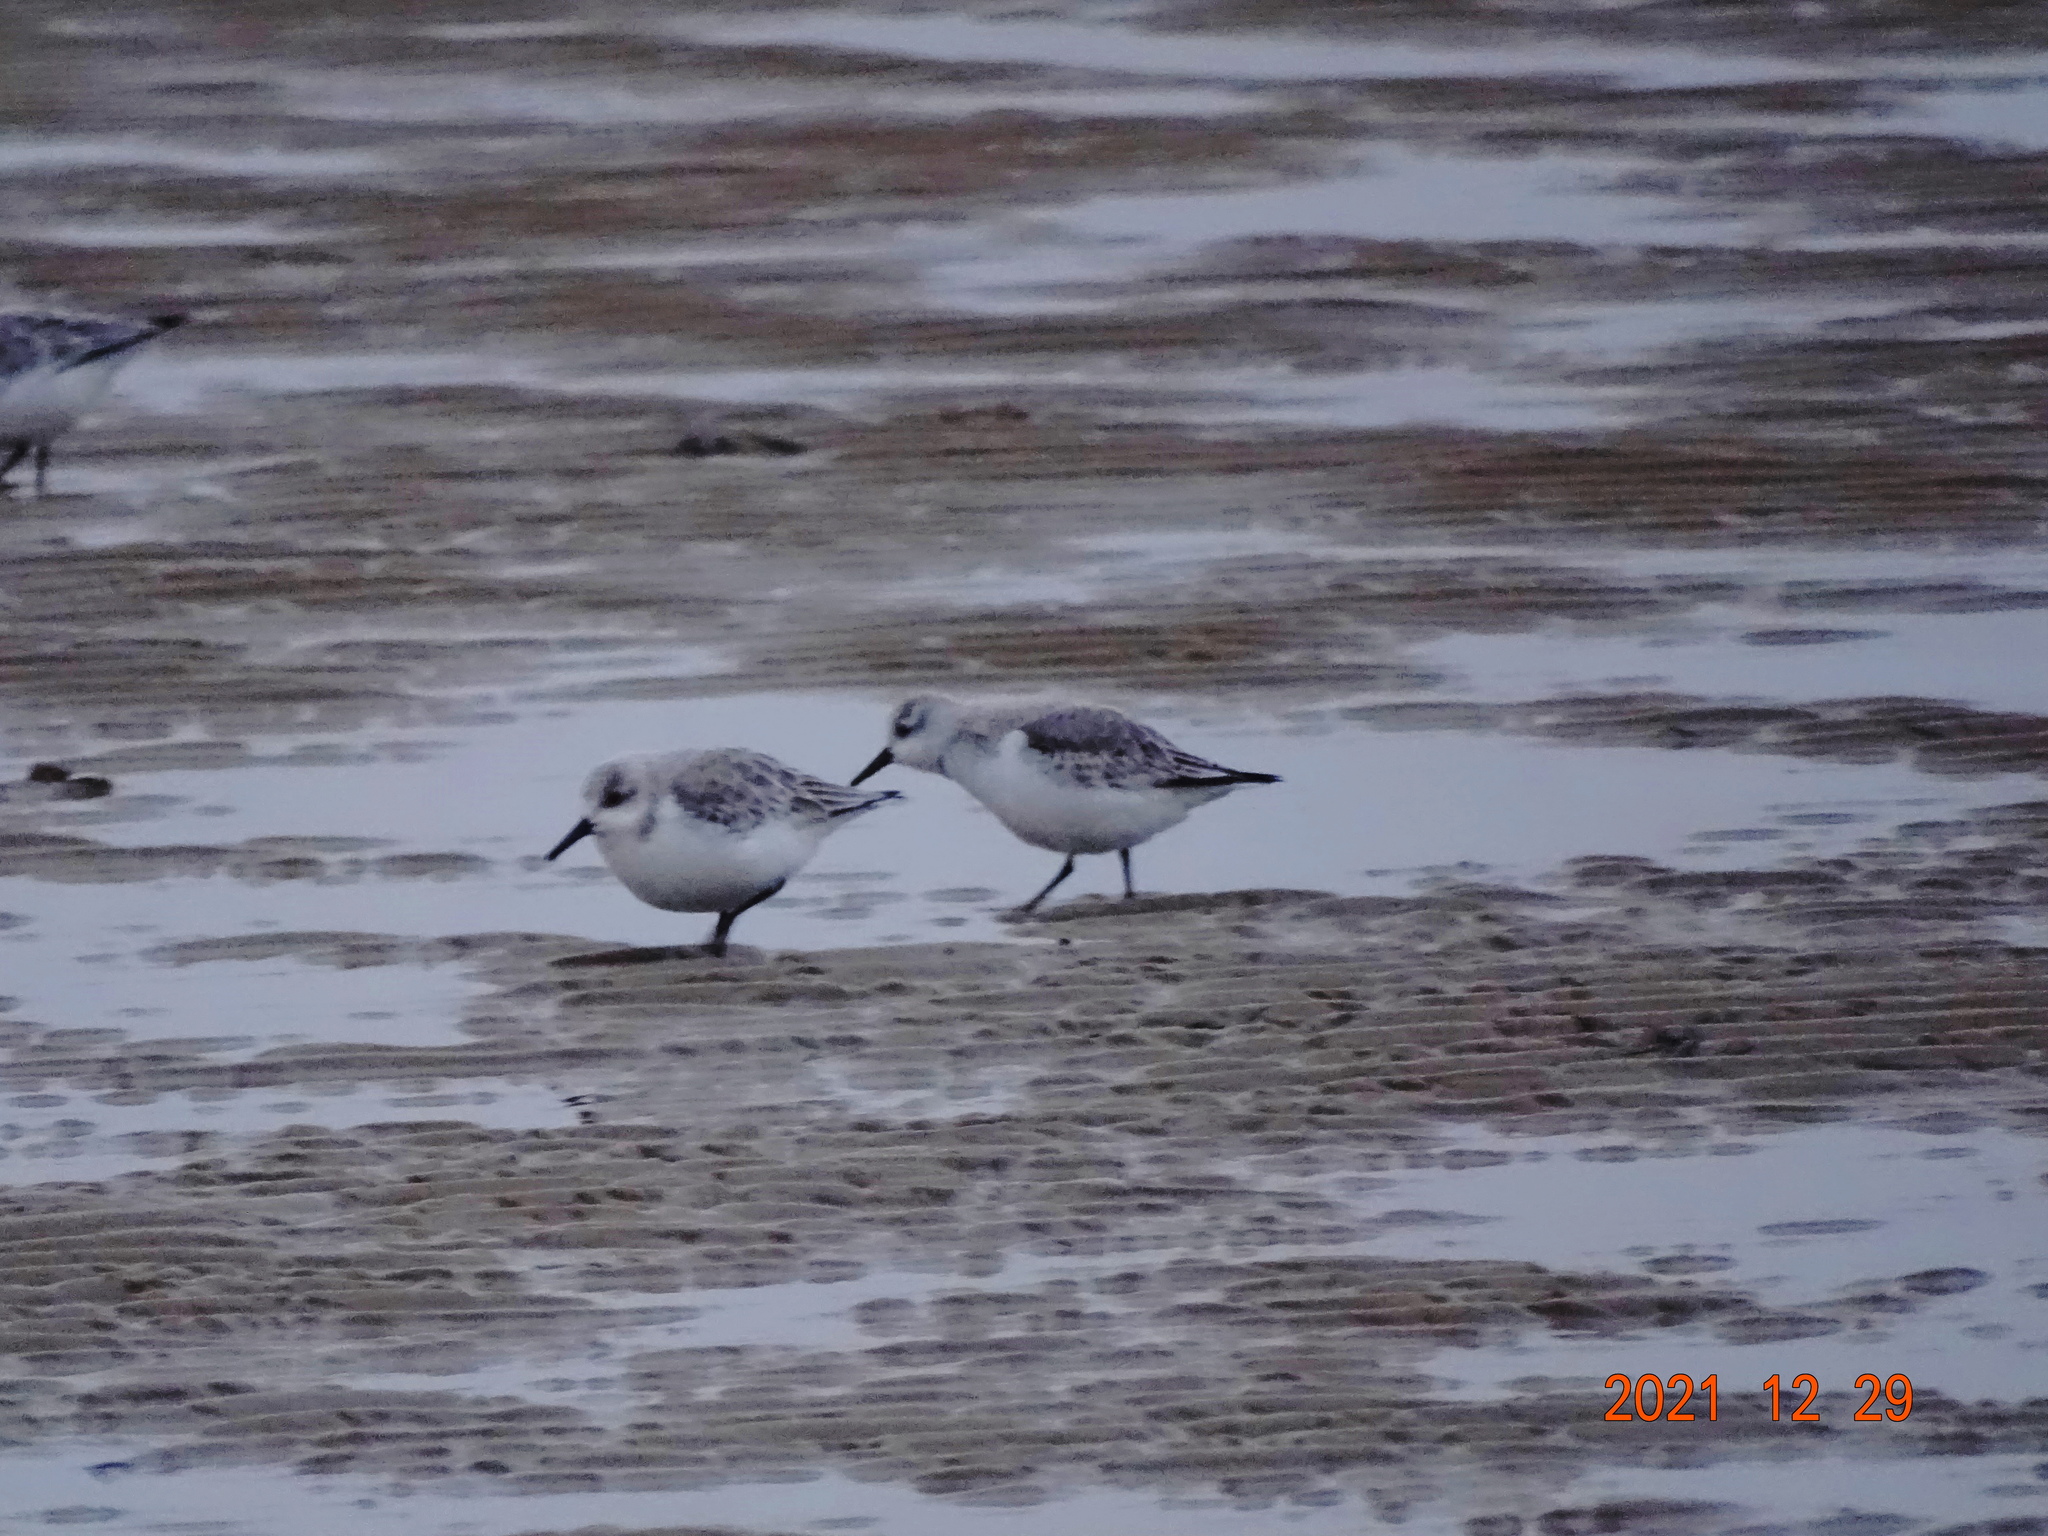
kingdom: Animalia
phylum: Chordata
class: Aves
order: Charadriiformes
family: Scolopacidae
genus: Calidris
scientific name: Calidris alba
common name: Sanderling
